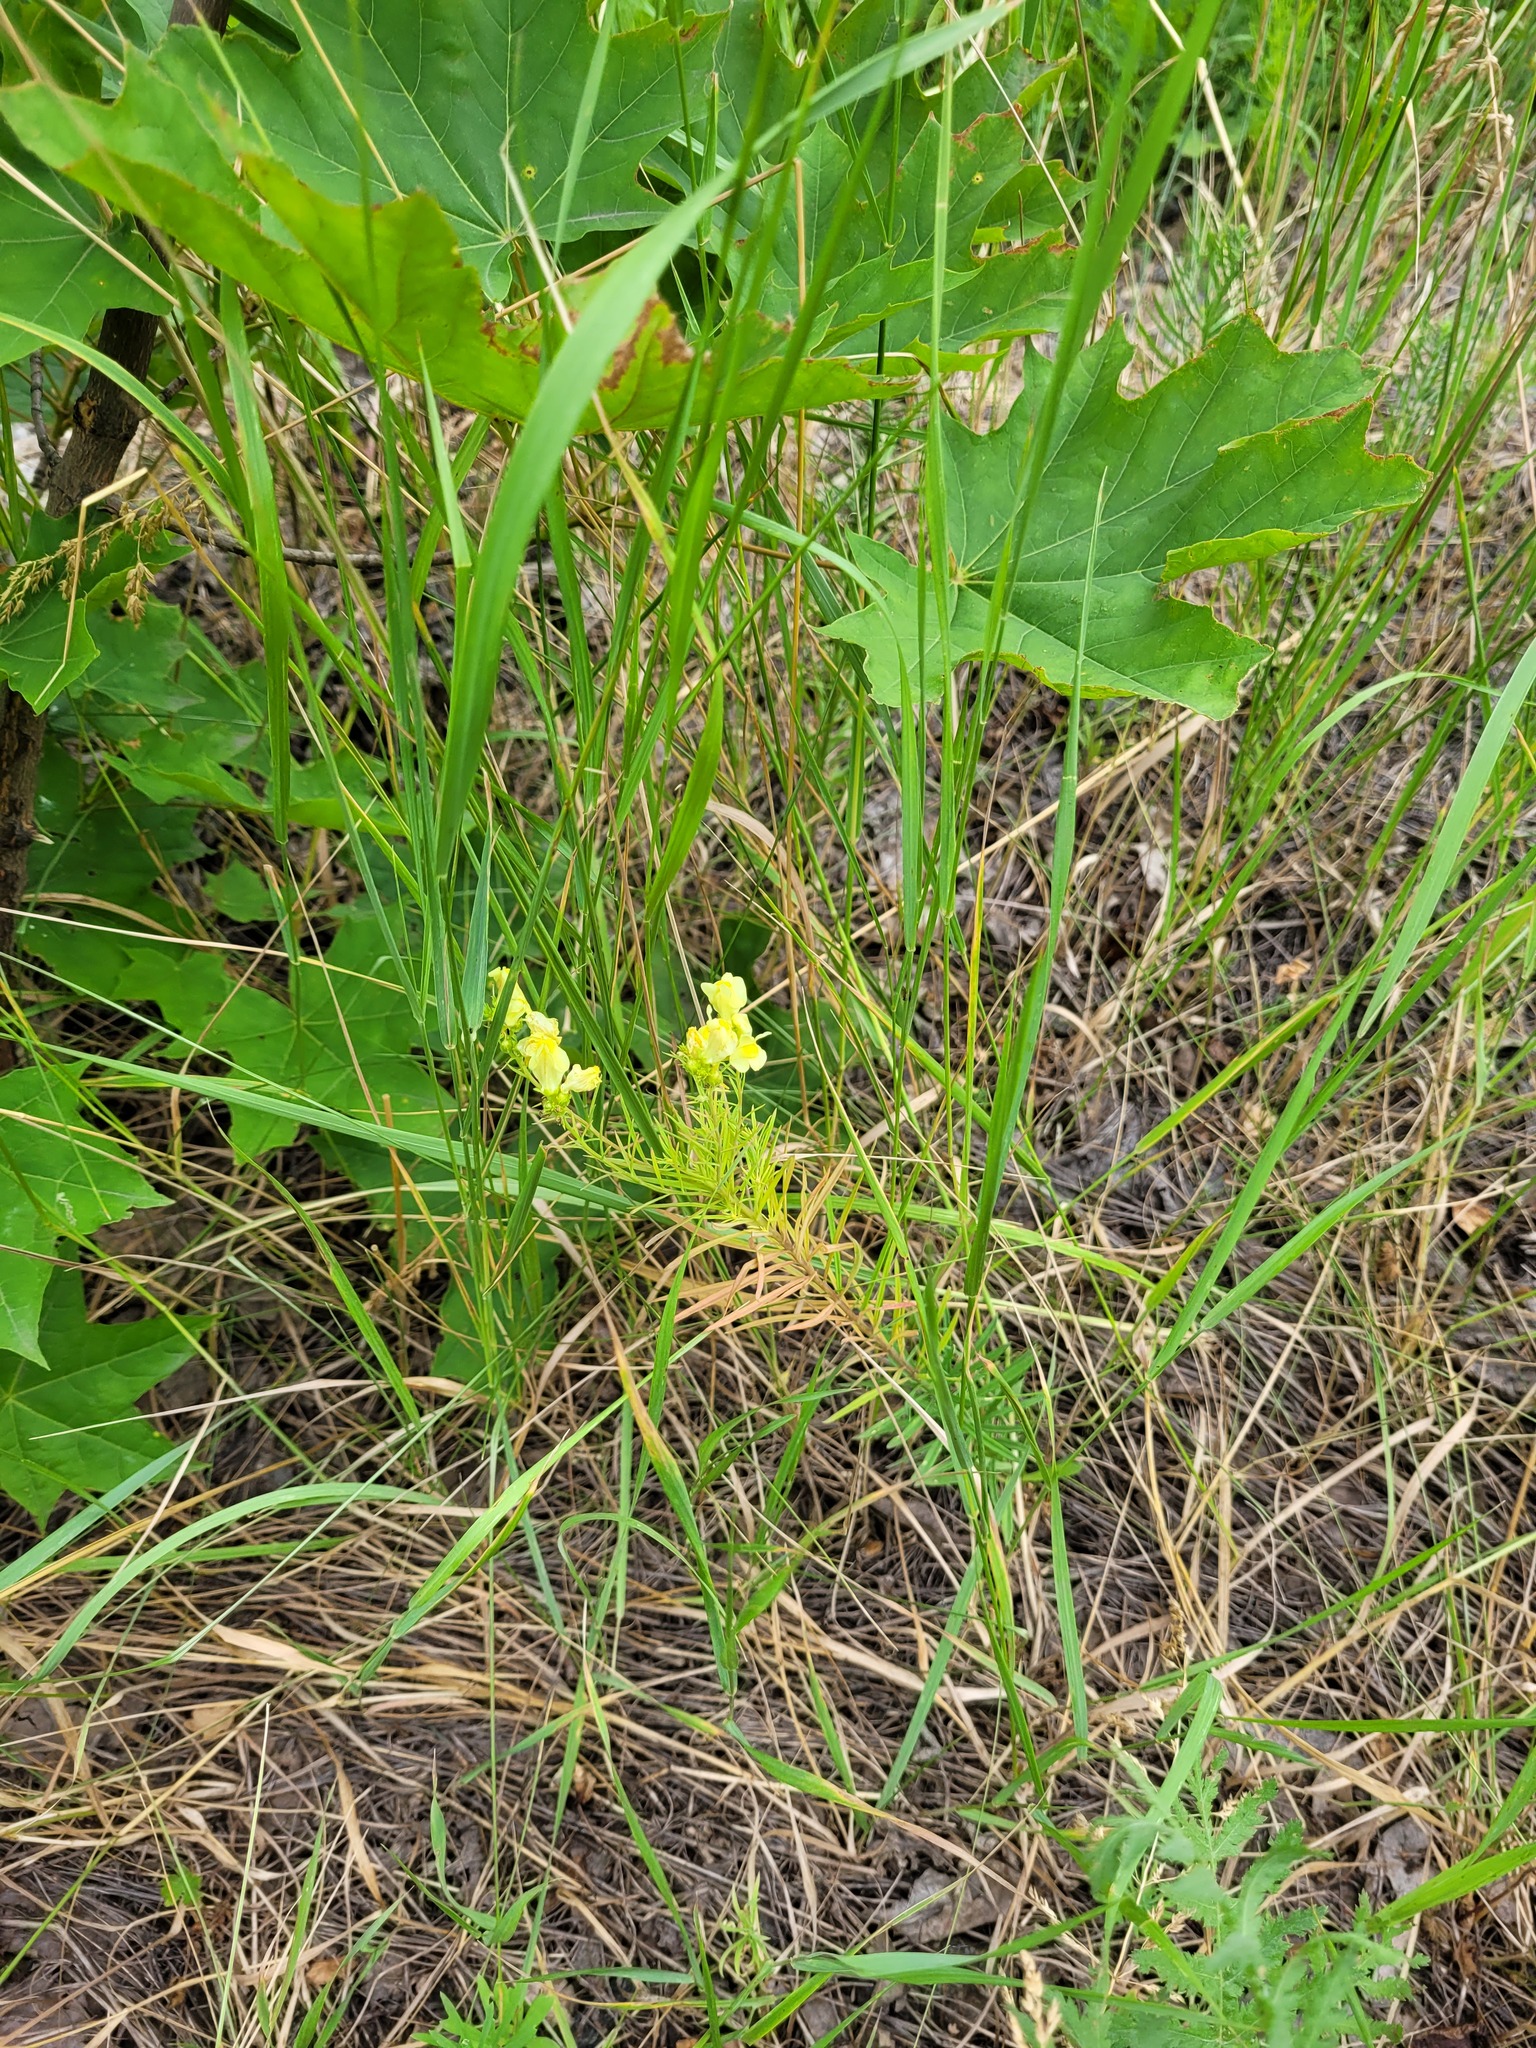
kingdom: Plantae
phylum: Tracheophyta
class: Magnoliopsida
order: Lamiales
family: Plantaginaceae
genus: Linaria
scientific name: Linaria vulgaris
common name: Butter and eggs
